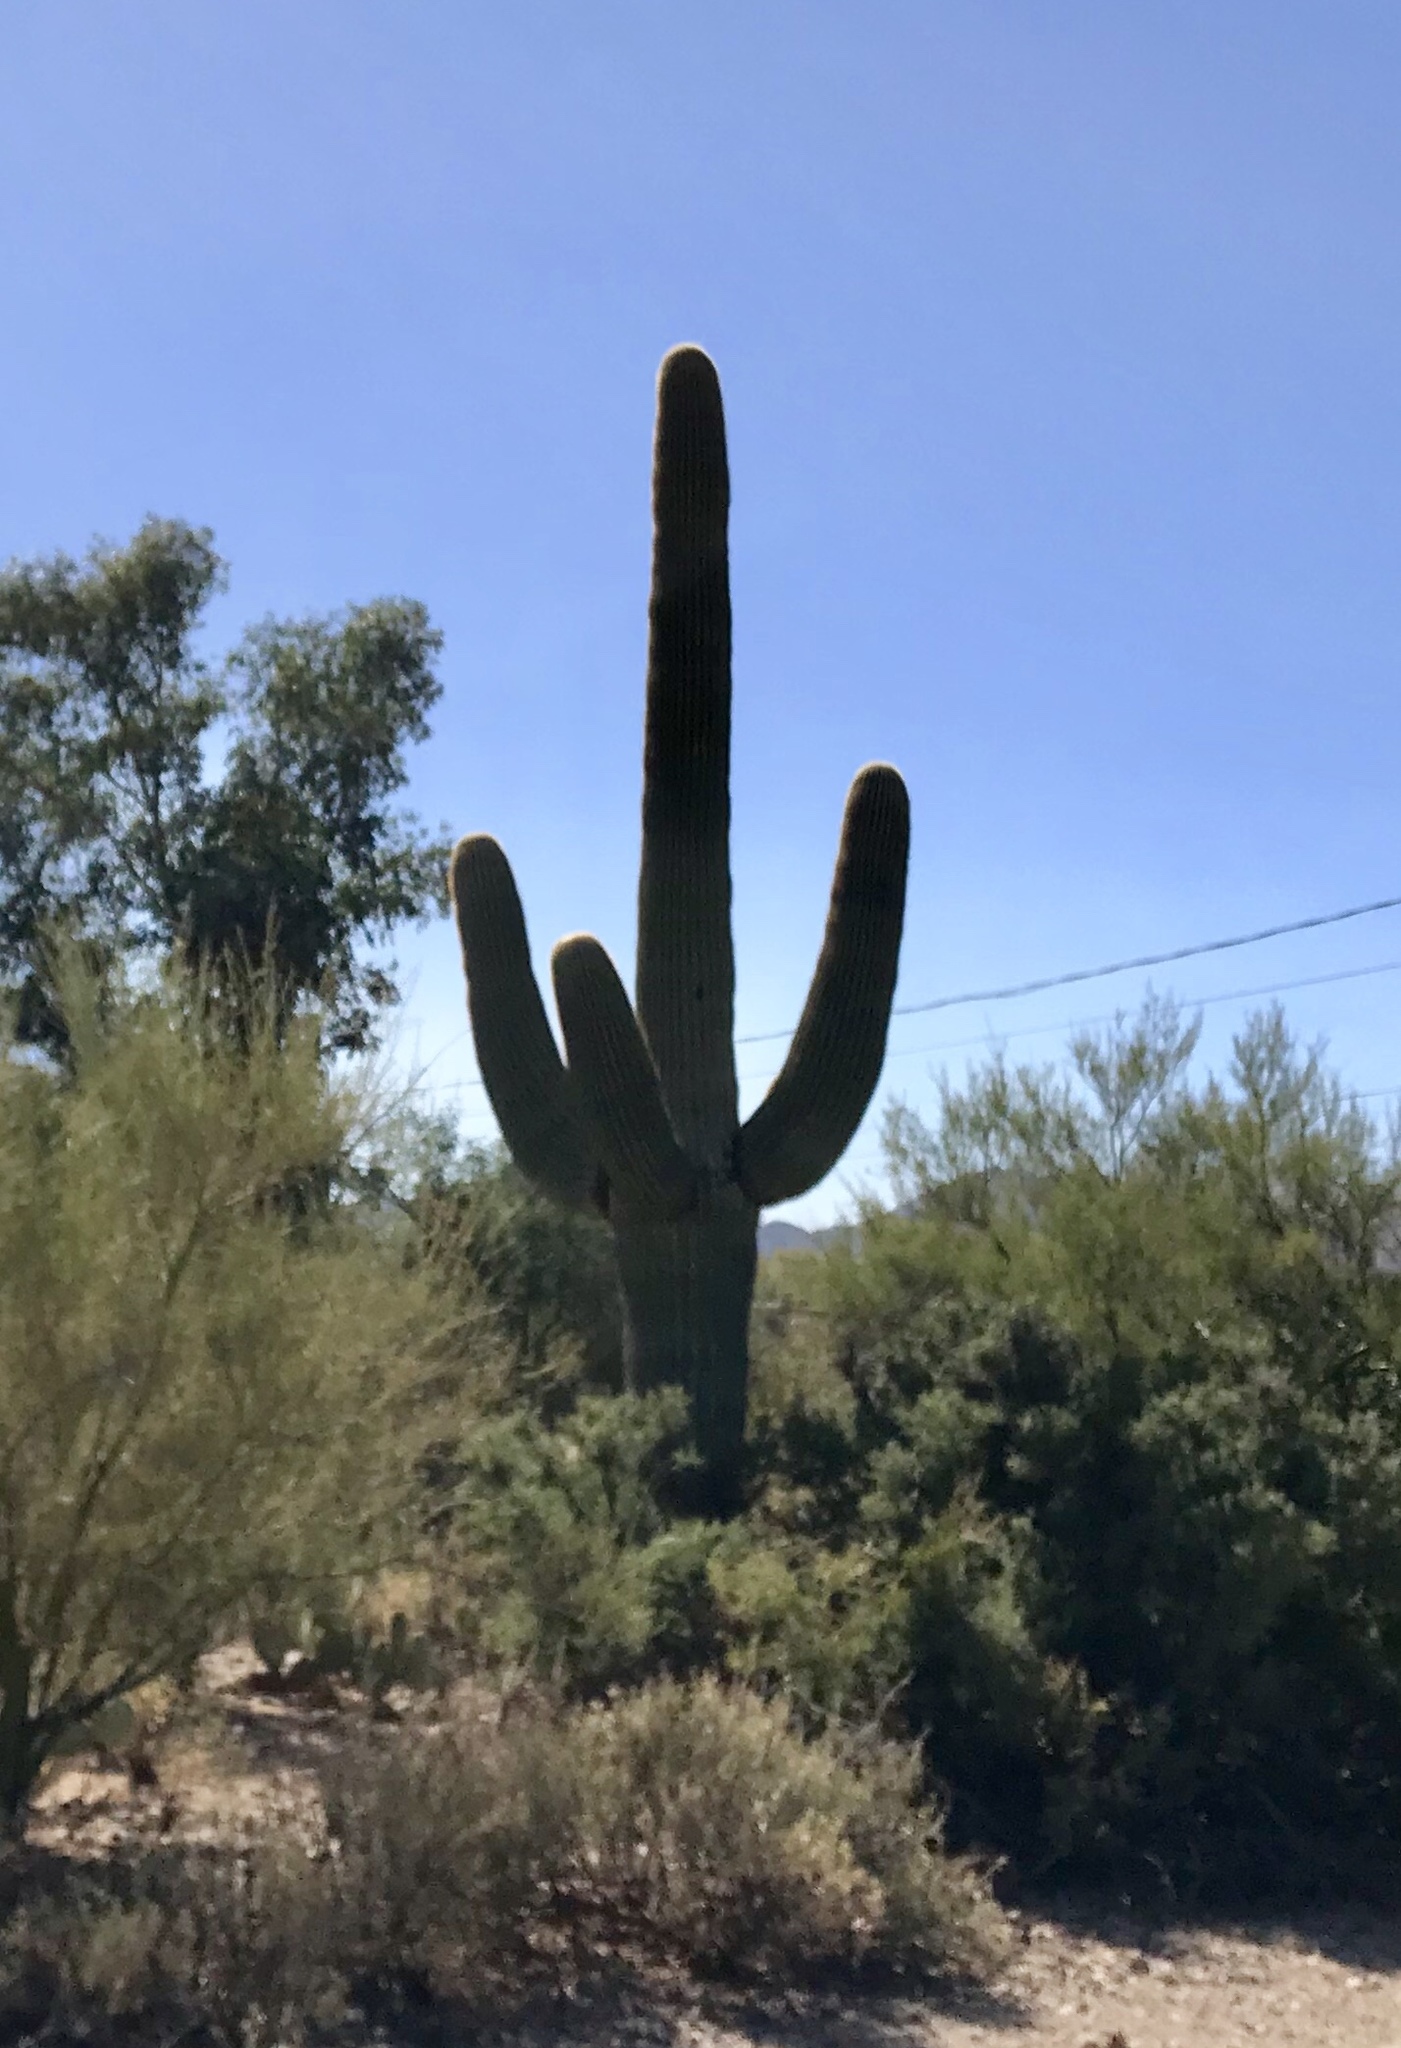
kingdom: Plantae
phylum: Tracheophyta
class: Magnoliopsida
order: Caryophyllales
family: Cactaceae
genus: Carnegiea
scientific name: Carnegiea gigantea
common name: Saguaro
